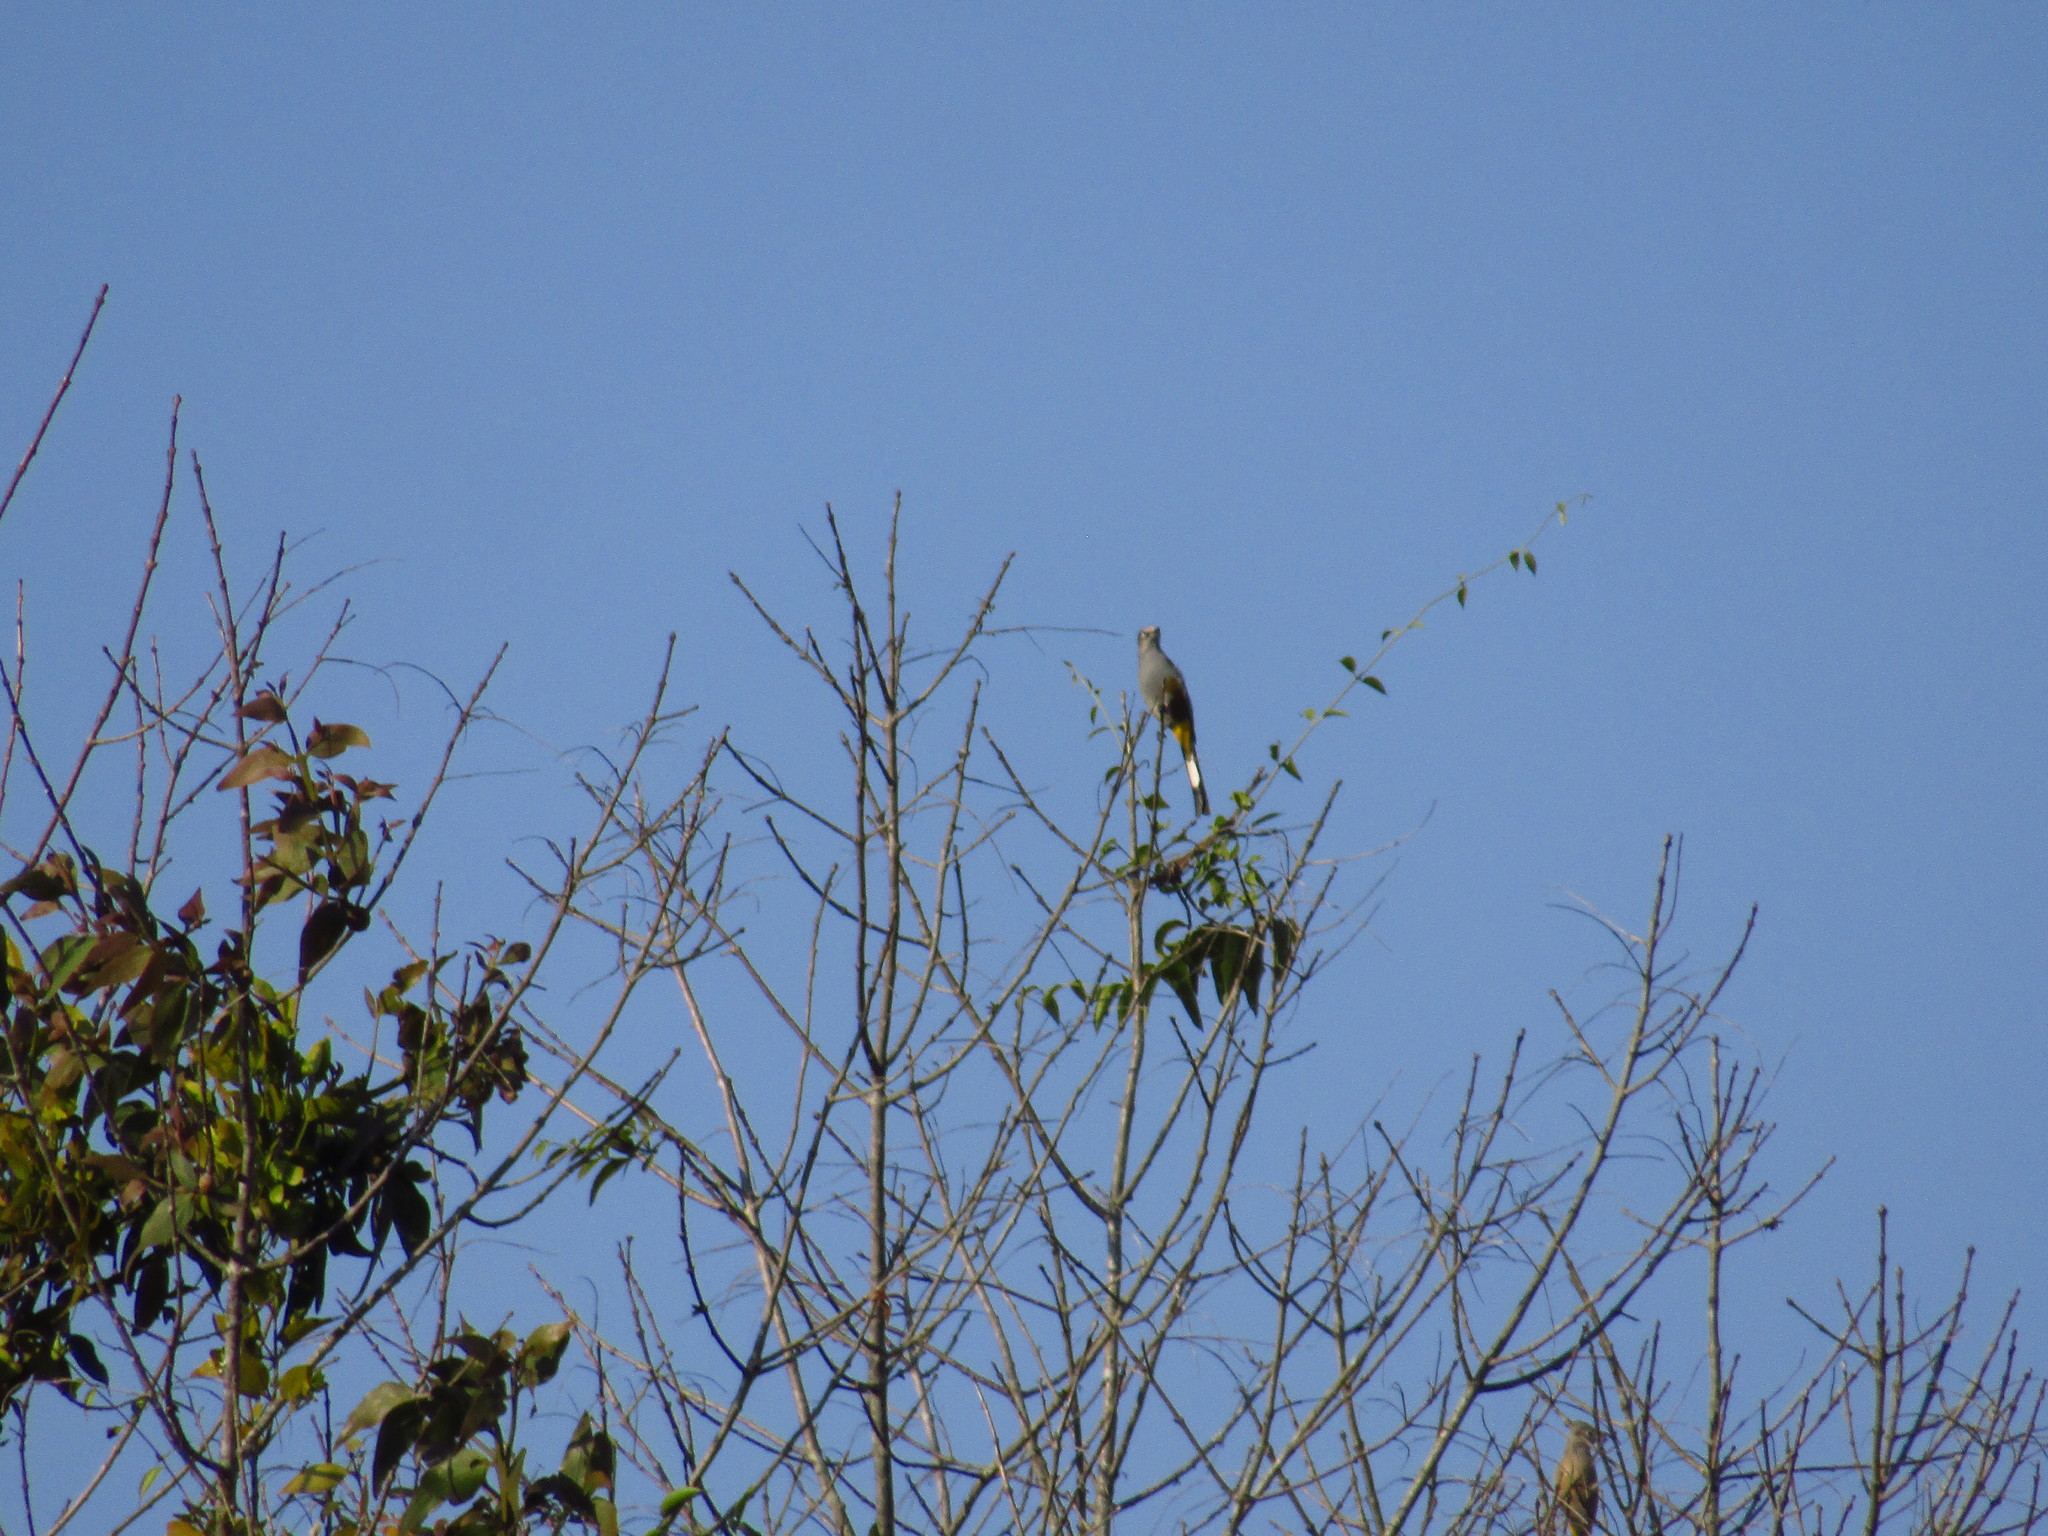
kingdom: Animalia
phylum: Chordata
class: Aves
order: Passeriformes
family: Ptilogonatidae
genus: Ptilogonys
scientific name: Ptilogonys cinereus
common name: Gray silky-flycatcher
